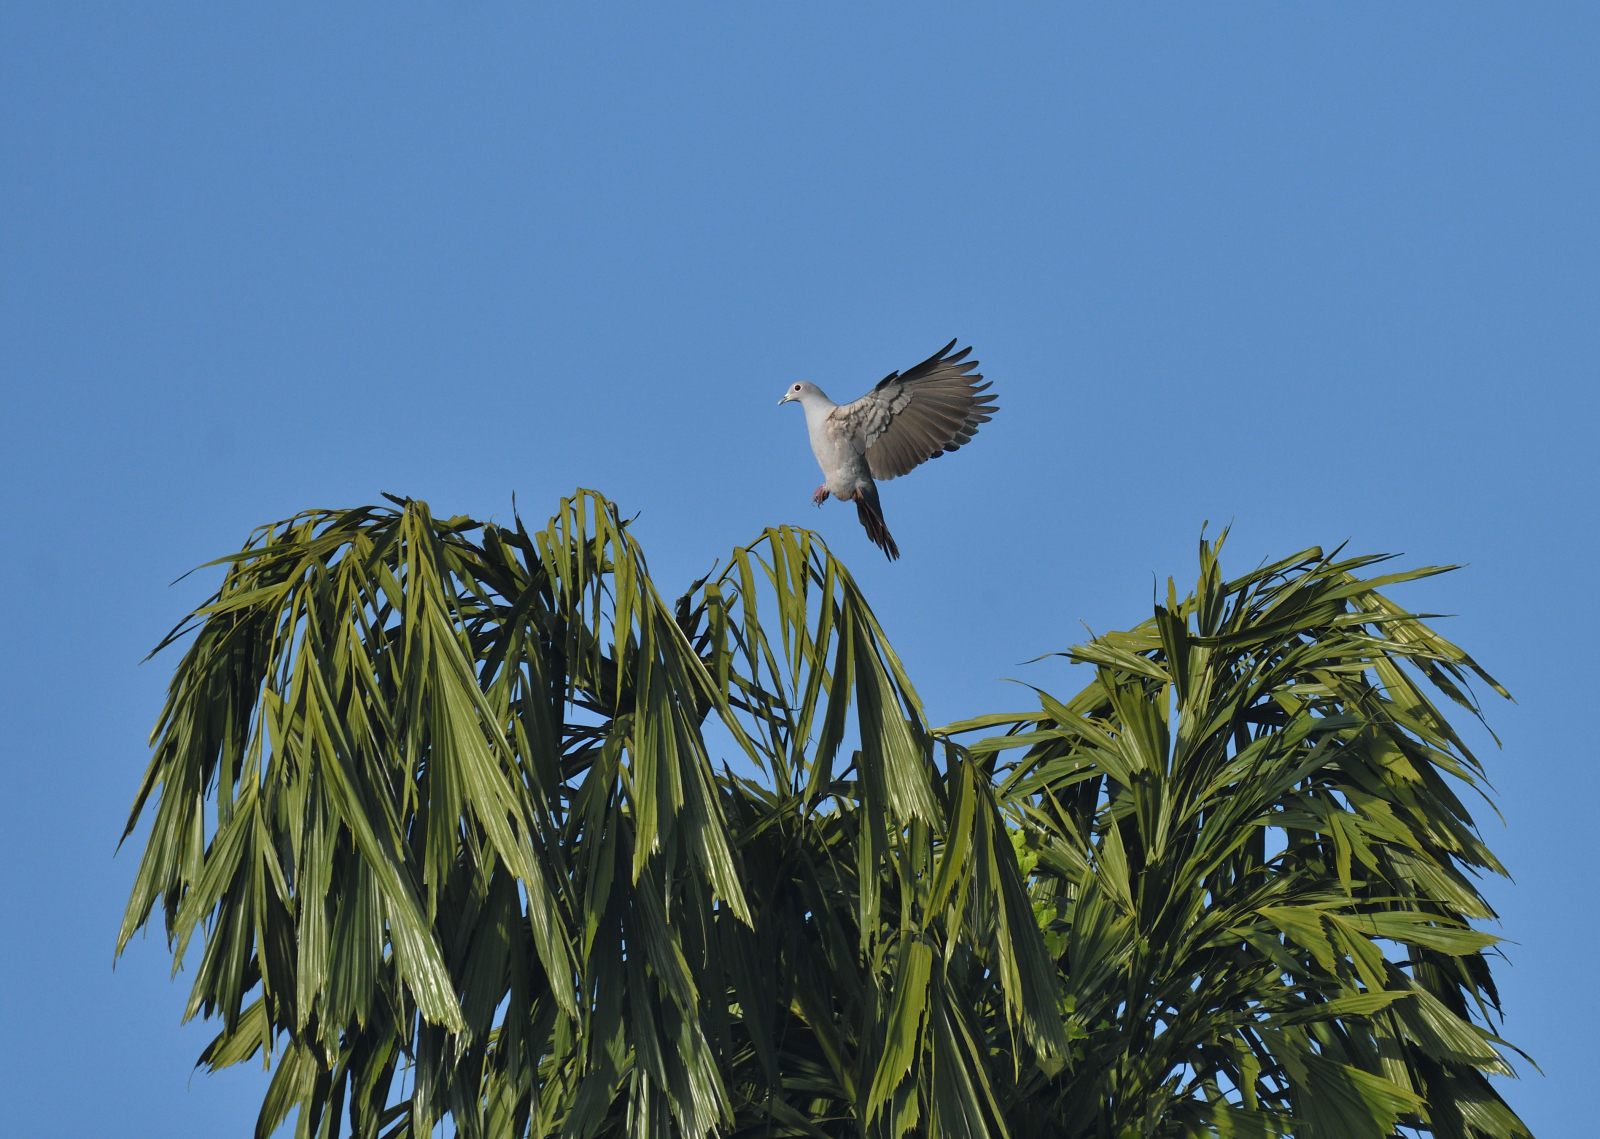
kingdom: Animalia
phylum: Chordata
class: Aves
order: Columbiformes
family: Columbidae
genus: Ducula
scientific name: Ducula aenea
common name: Green imperial pigeon
